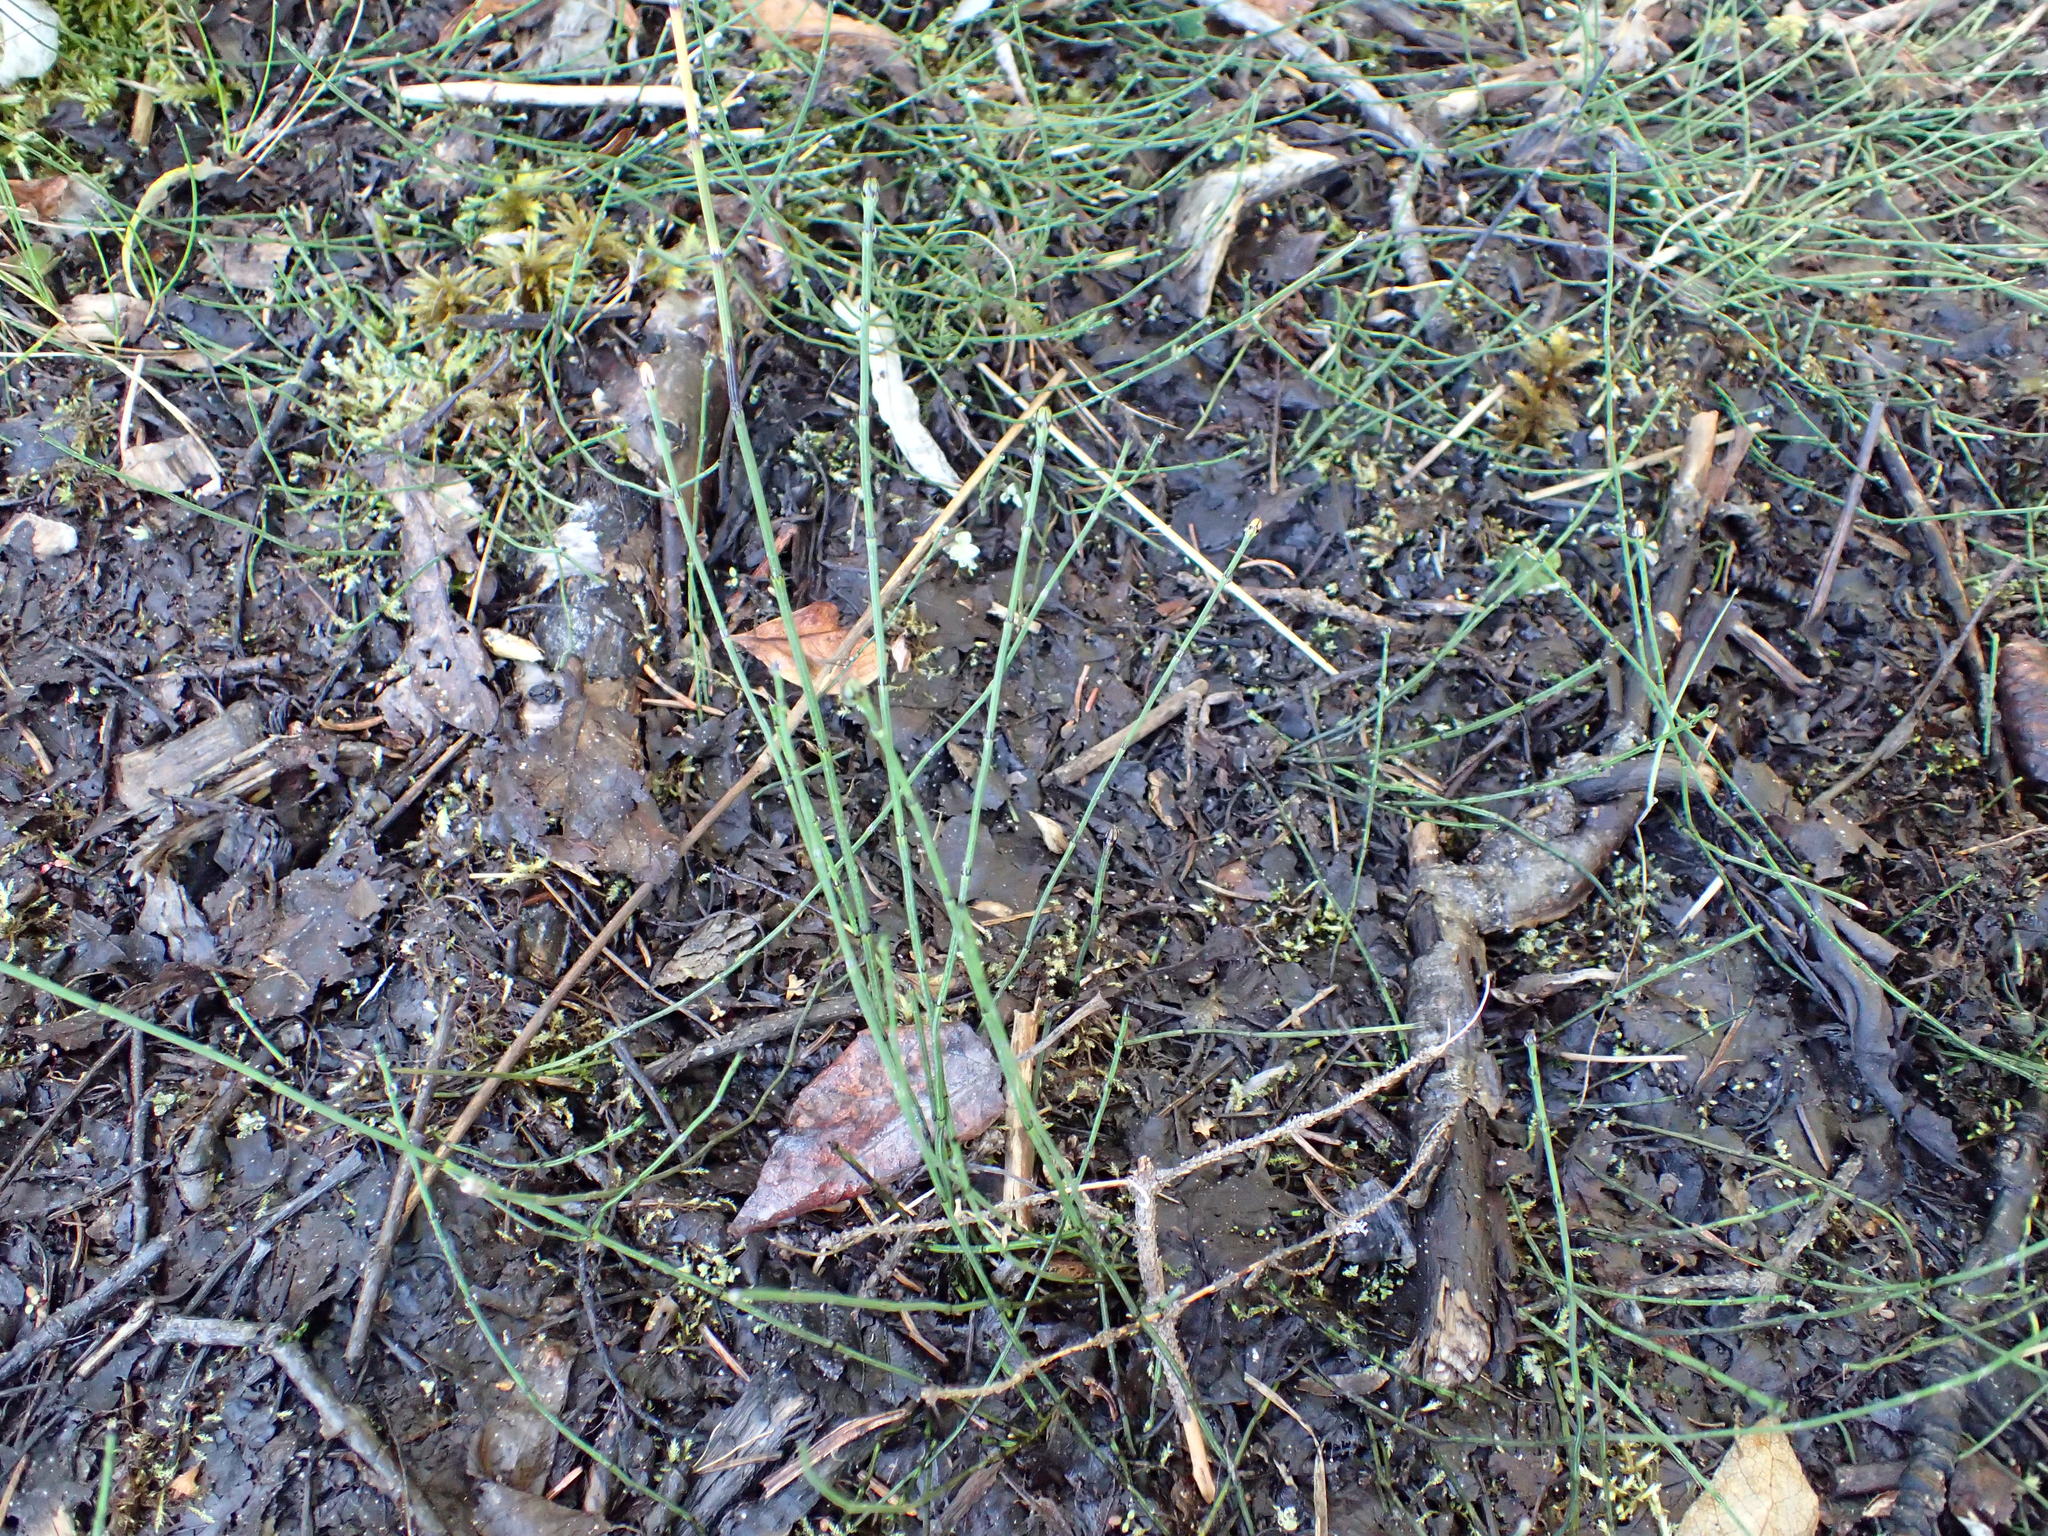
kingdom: Plantae
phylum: Tracheophyta
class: Polypodiopsida
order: Equisetales
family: Equisetaceae
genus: Equisetum
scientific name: Equisetum variegatum
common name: Variegated horsetail
